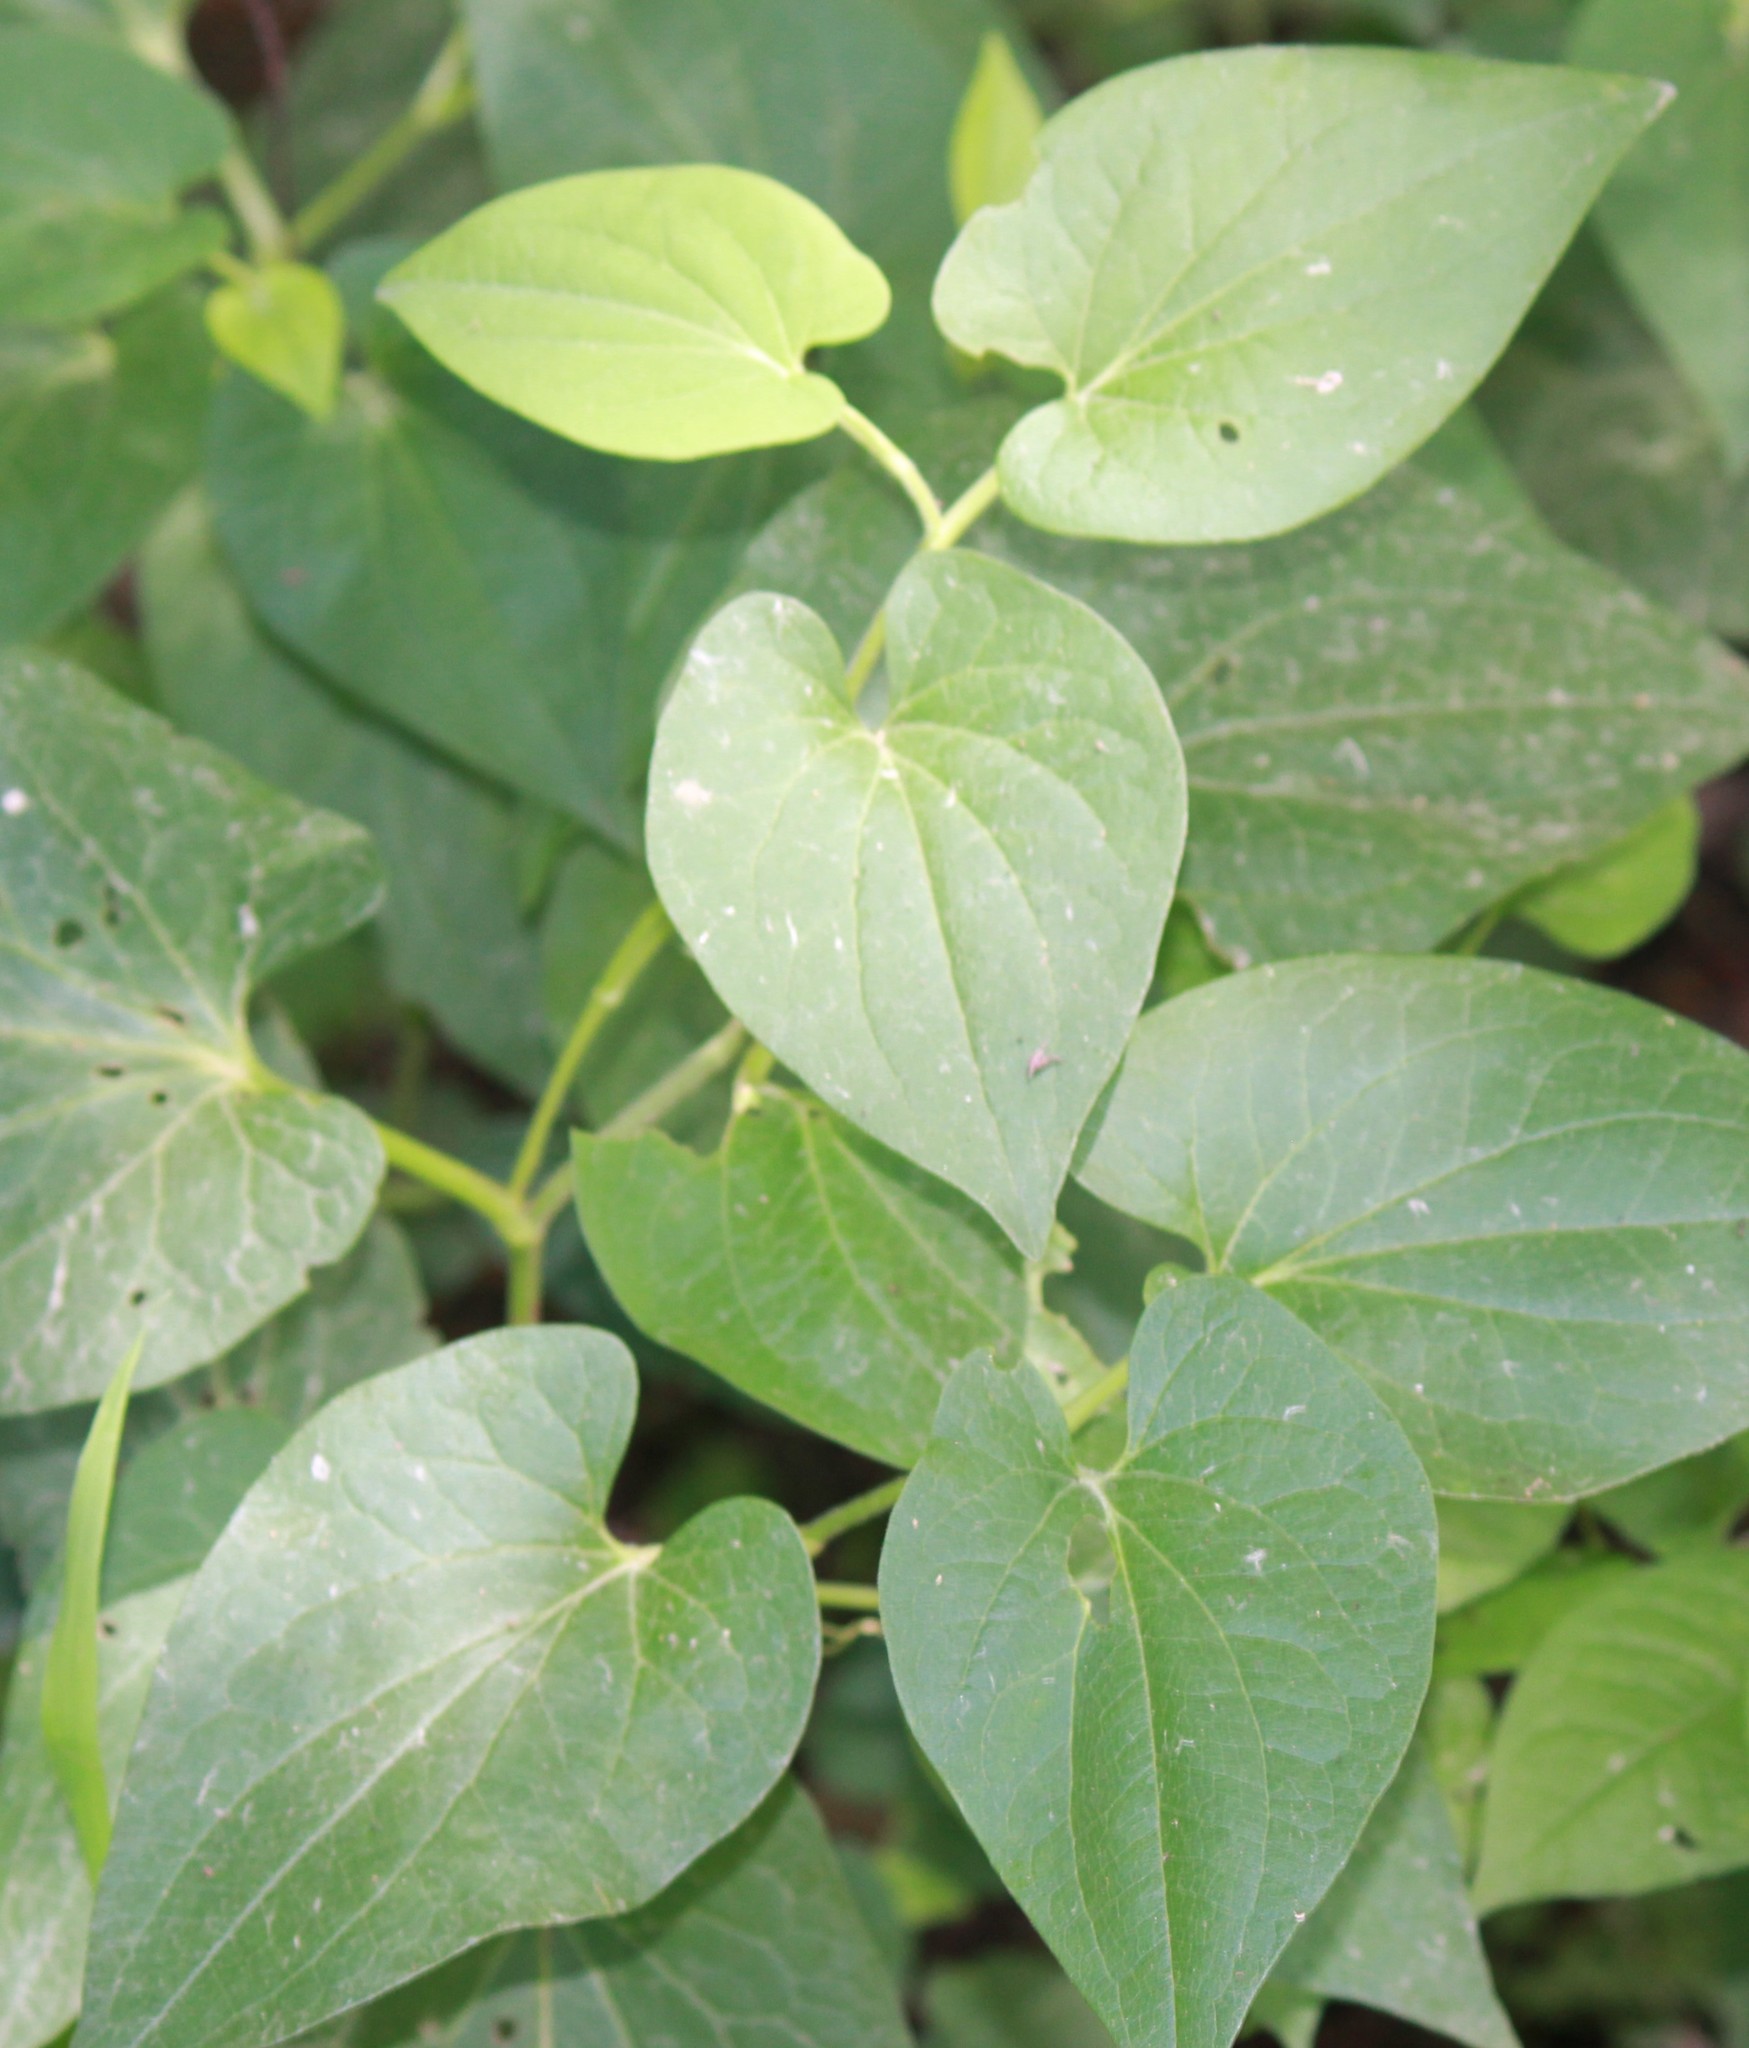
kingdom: Plantae
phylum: Tracheophyta
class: Magnoliopsida
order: Piperales
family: Saururaceae
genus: Saururus
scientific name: Saururus cernuus
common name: Lizard's-tail
